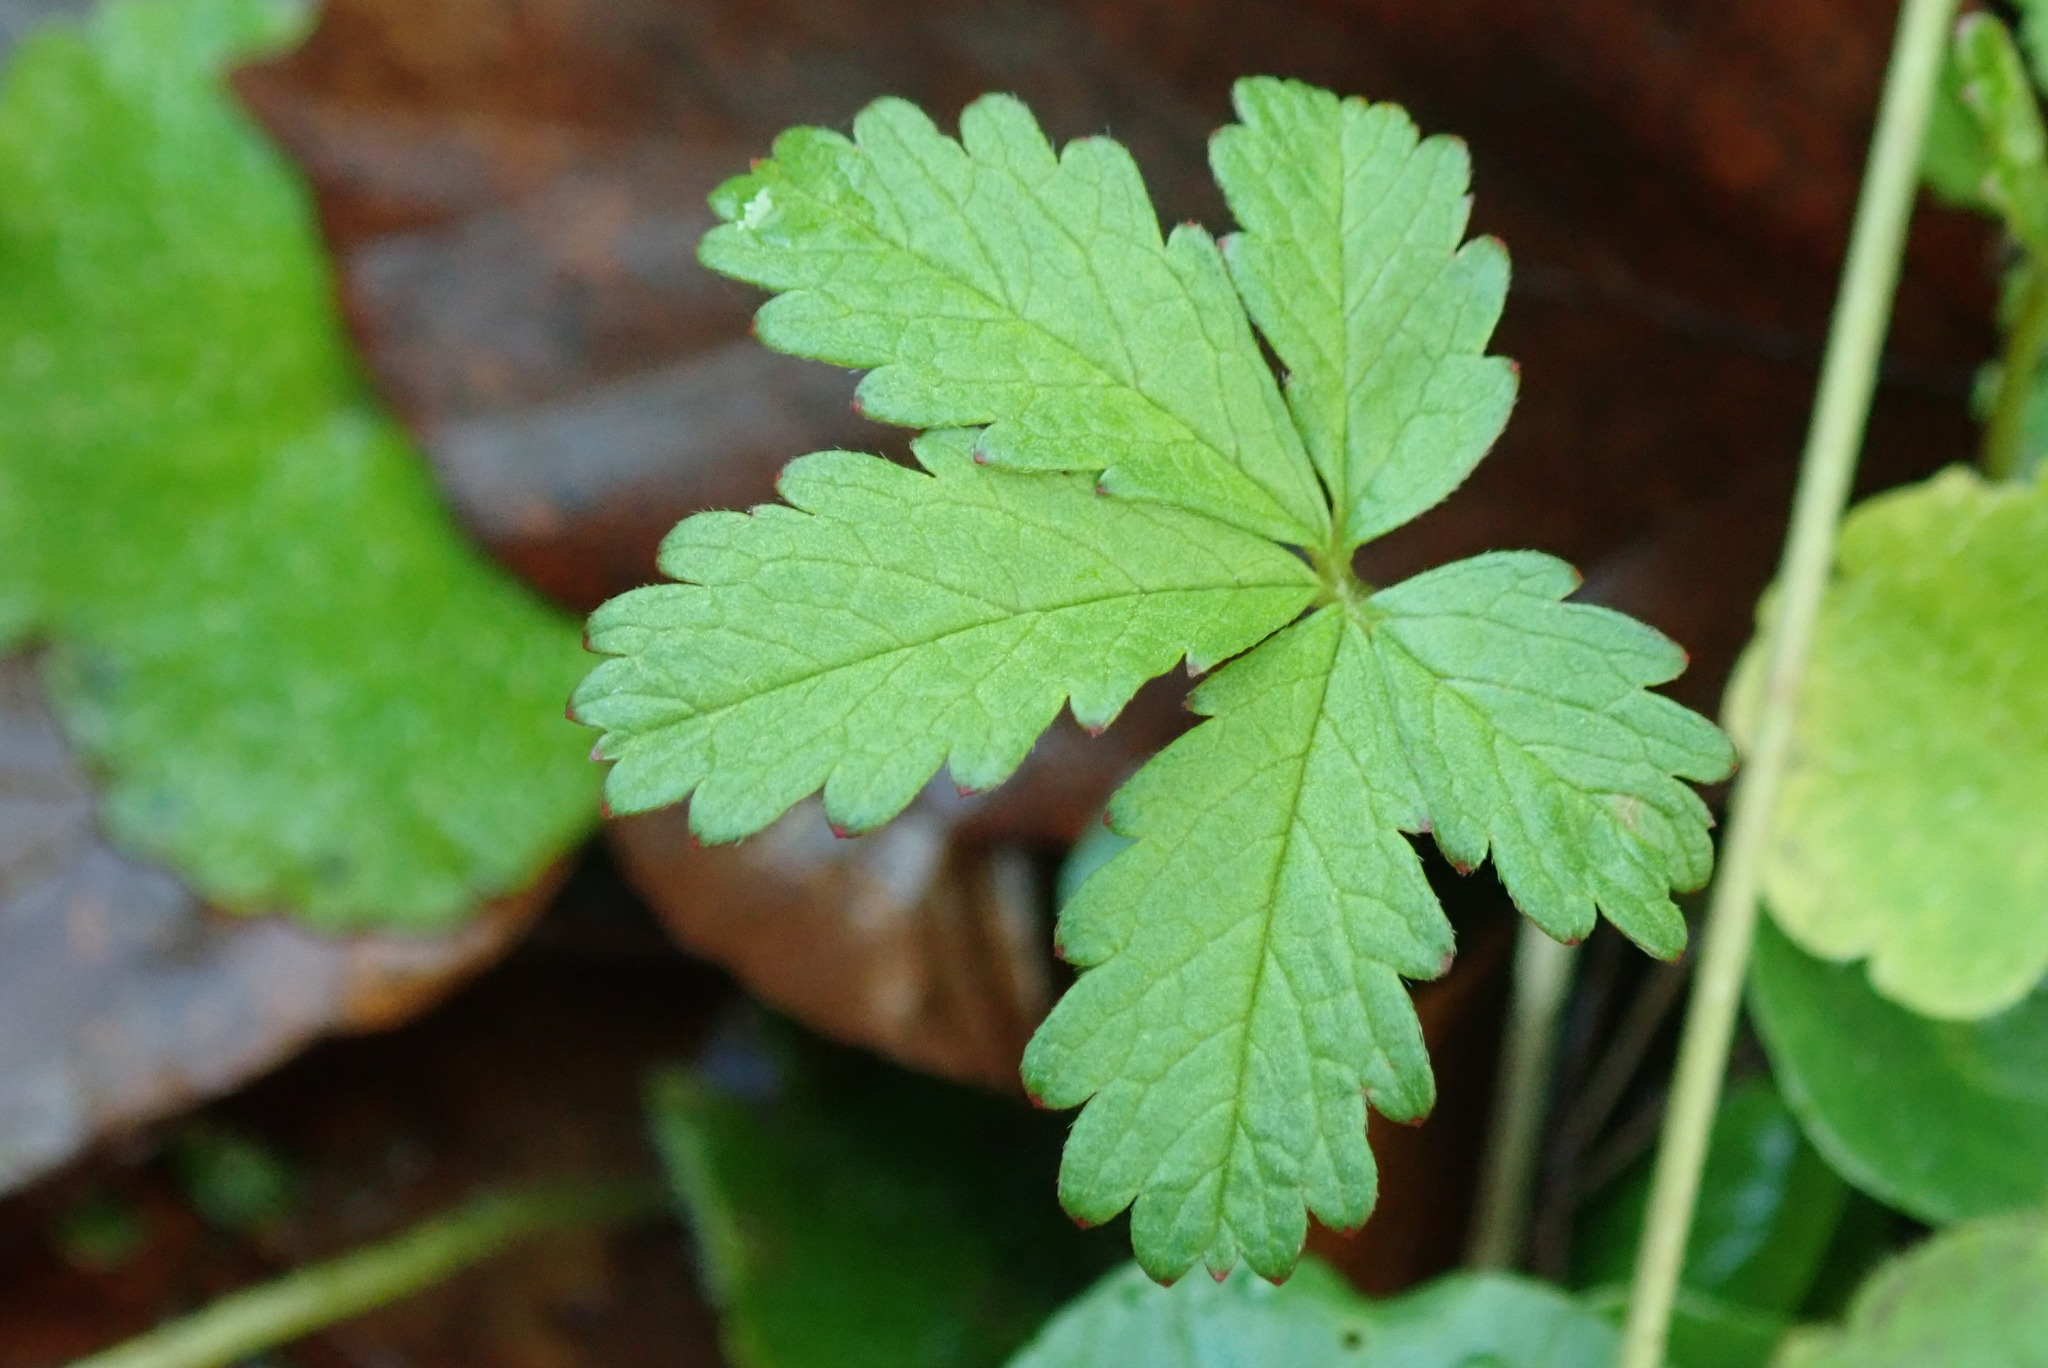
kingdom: Plantae
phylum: Tracheophyta
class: Magnoliopsida
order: Rosales
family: Rosaceae
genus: Potentilla
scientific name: Potentilla reptans
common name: Creeping cinquefoil
